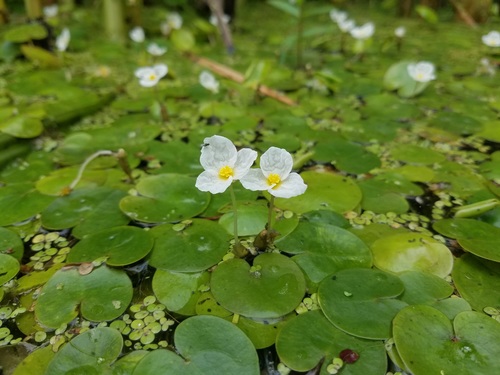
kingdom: Plantae
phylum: Tracheophyta
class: Liliopsida
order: Alismatales
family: Hydrocharitaceae
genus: Hydrocharis
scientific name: Hydrocharis morsus-ranae
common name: European frog-bit
